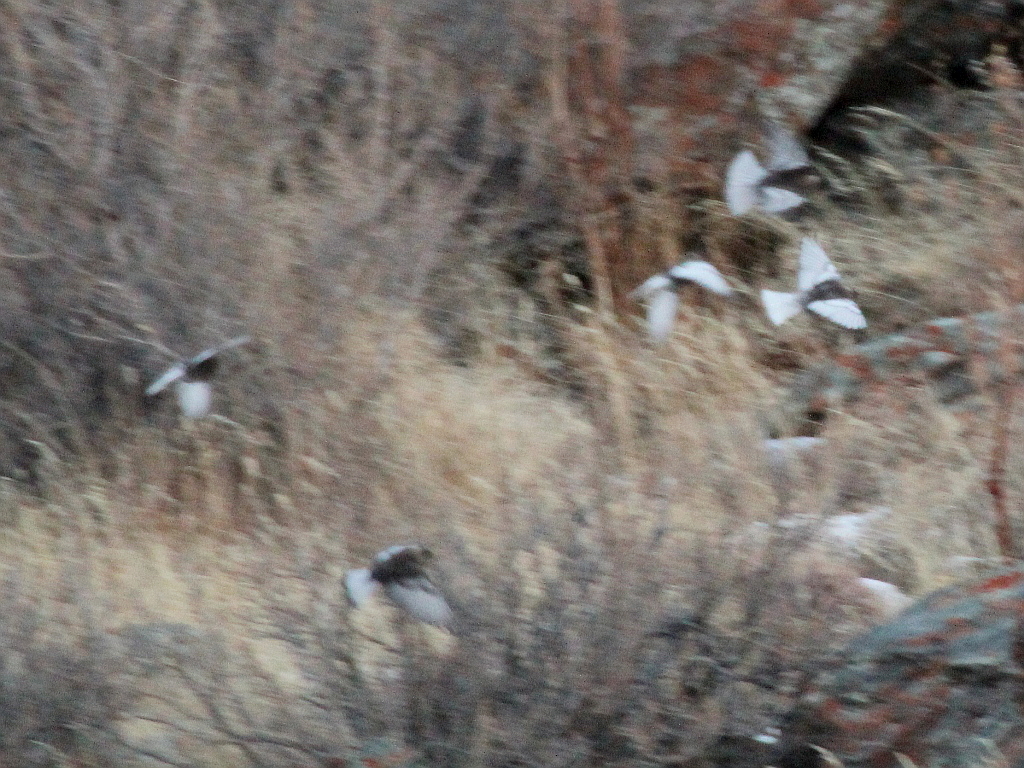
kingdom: Animalia
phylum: Chordata
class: Aves
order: Passeriformes
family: Fringillidae
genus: Leucosticte
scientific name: Leucosticte arctoa
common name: Asian rosy finch
